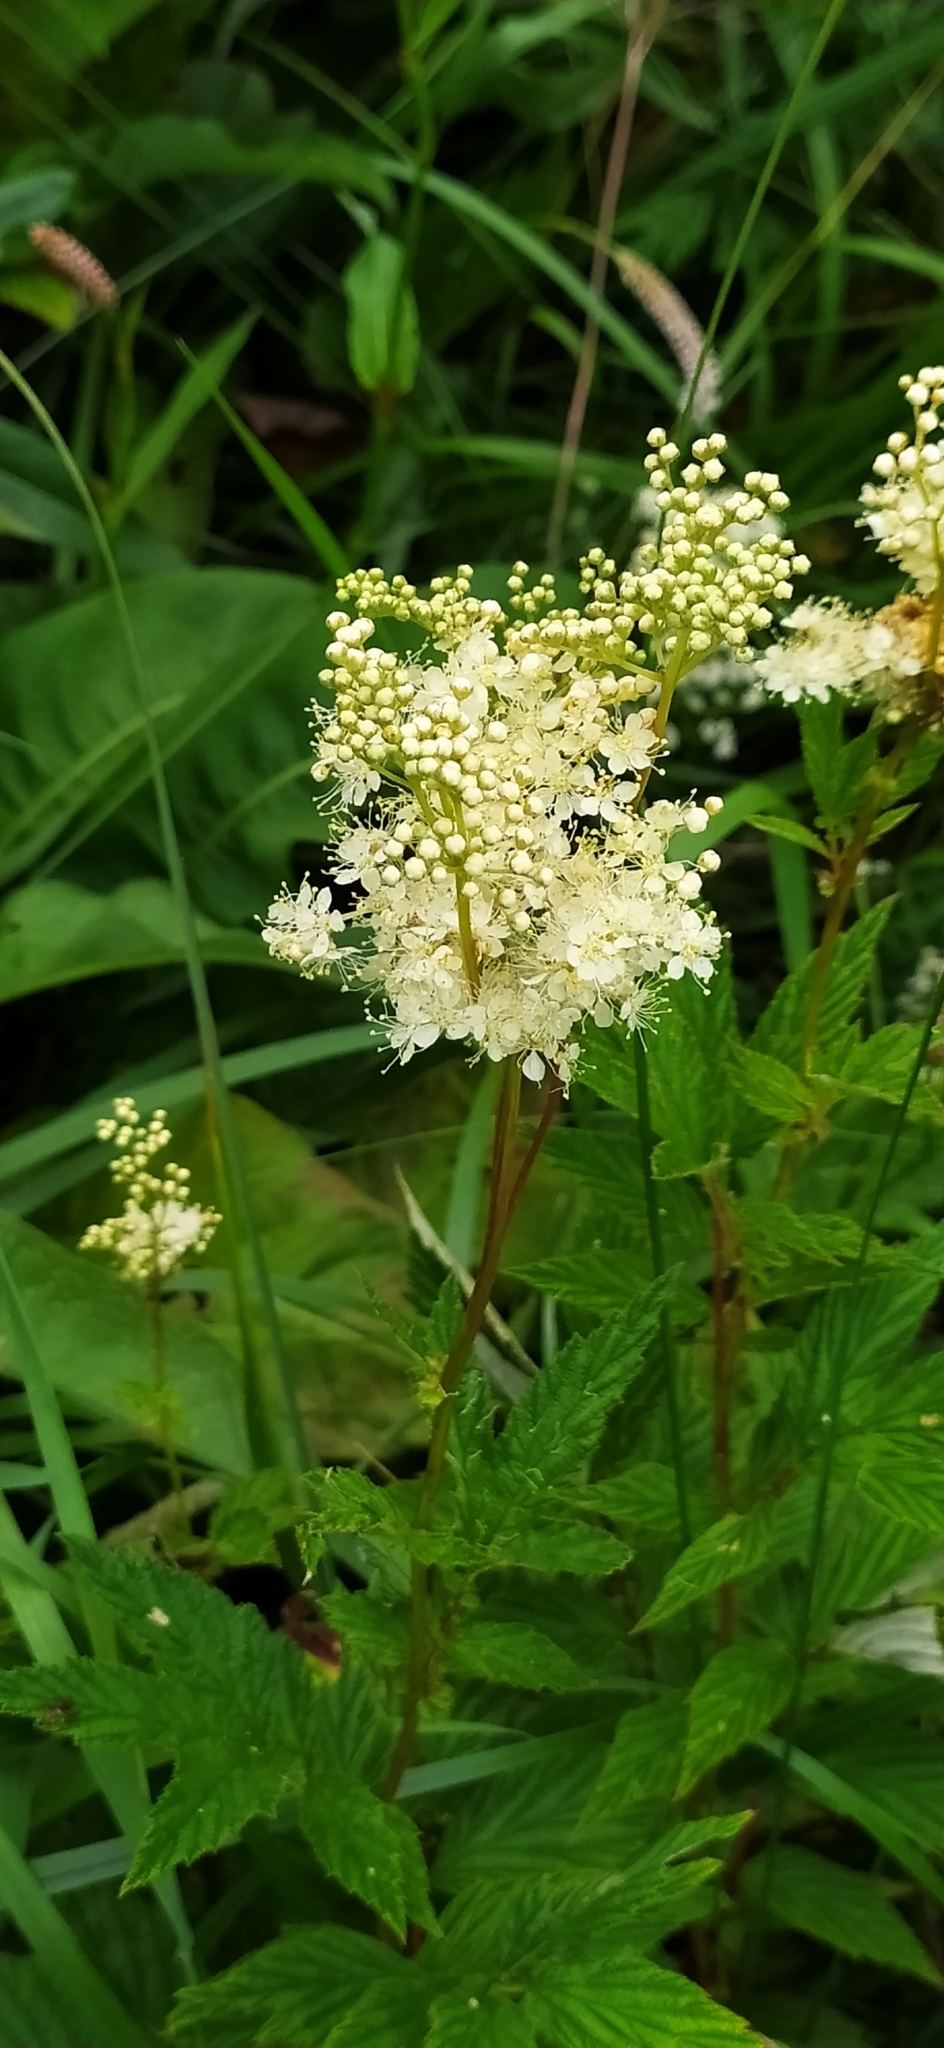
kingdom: Plantae
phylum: Tracheophyta
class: Magnoliopsida
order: Rosales
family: Rosaceae
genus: Filipendula
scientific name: Filipendula ulmaria
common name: Meadowsweet
